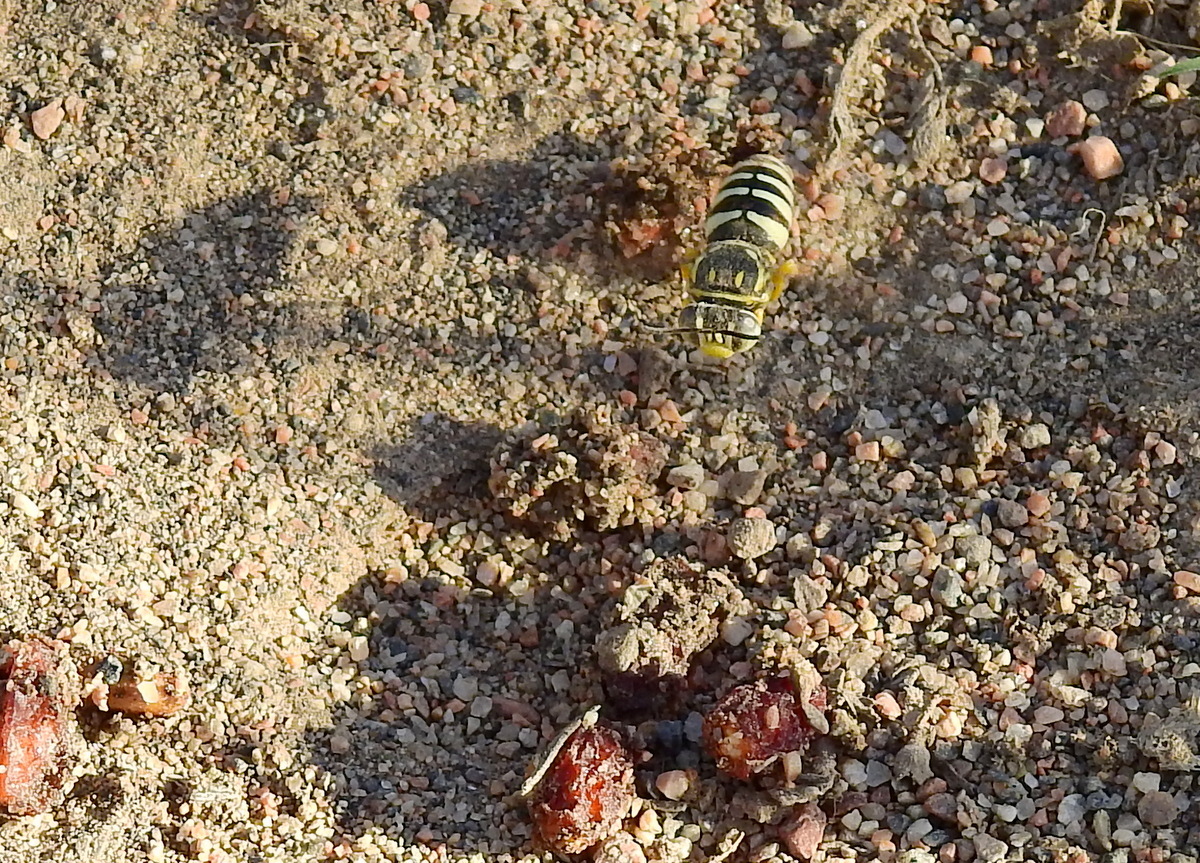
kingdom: Animalia
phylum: Arthropoda
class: Insecta
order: Hymenoptera
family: Crabronidae
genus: Bicyrtes
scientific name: Bicyrtes mendicus
